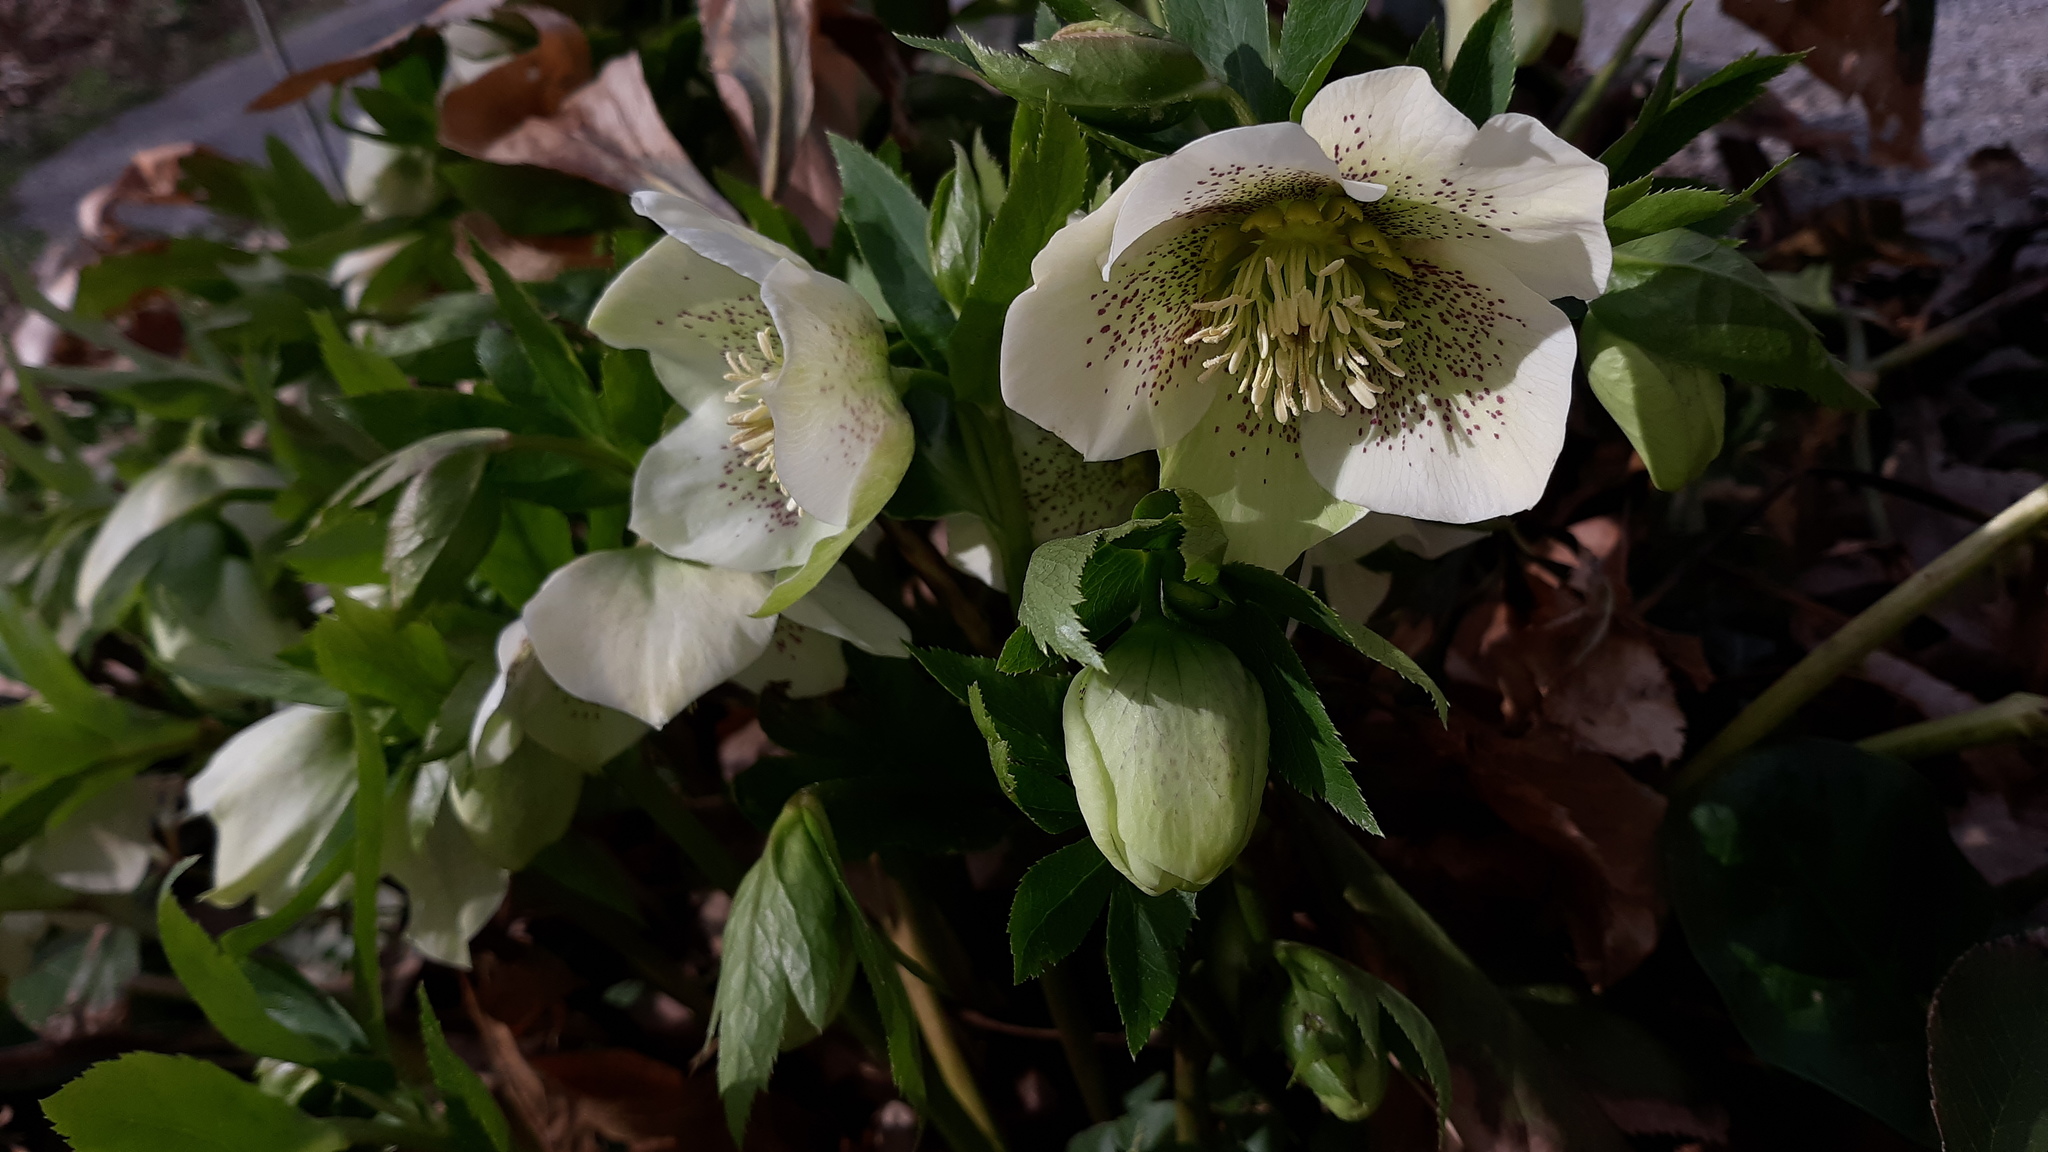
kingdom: Plantae
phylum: Tracheophyta
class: Magnoliopsida
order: Ranunculales
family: Ranunculaceae
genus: Helleborus
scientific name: Helleborus orientalis
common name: Lenten-rose
